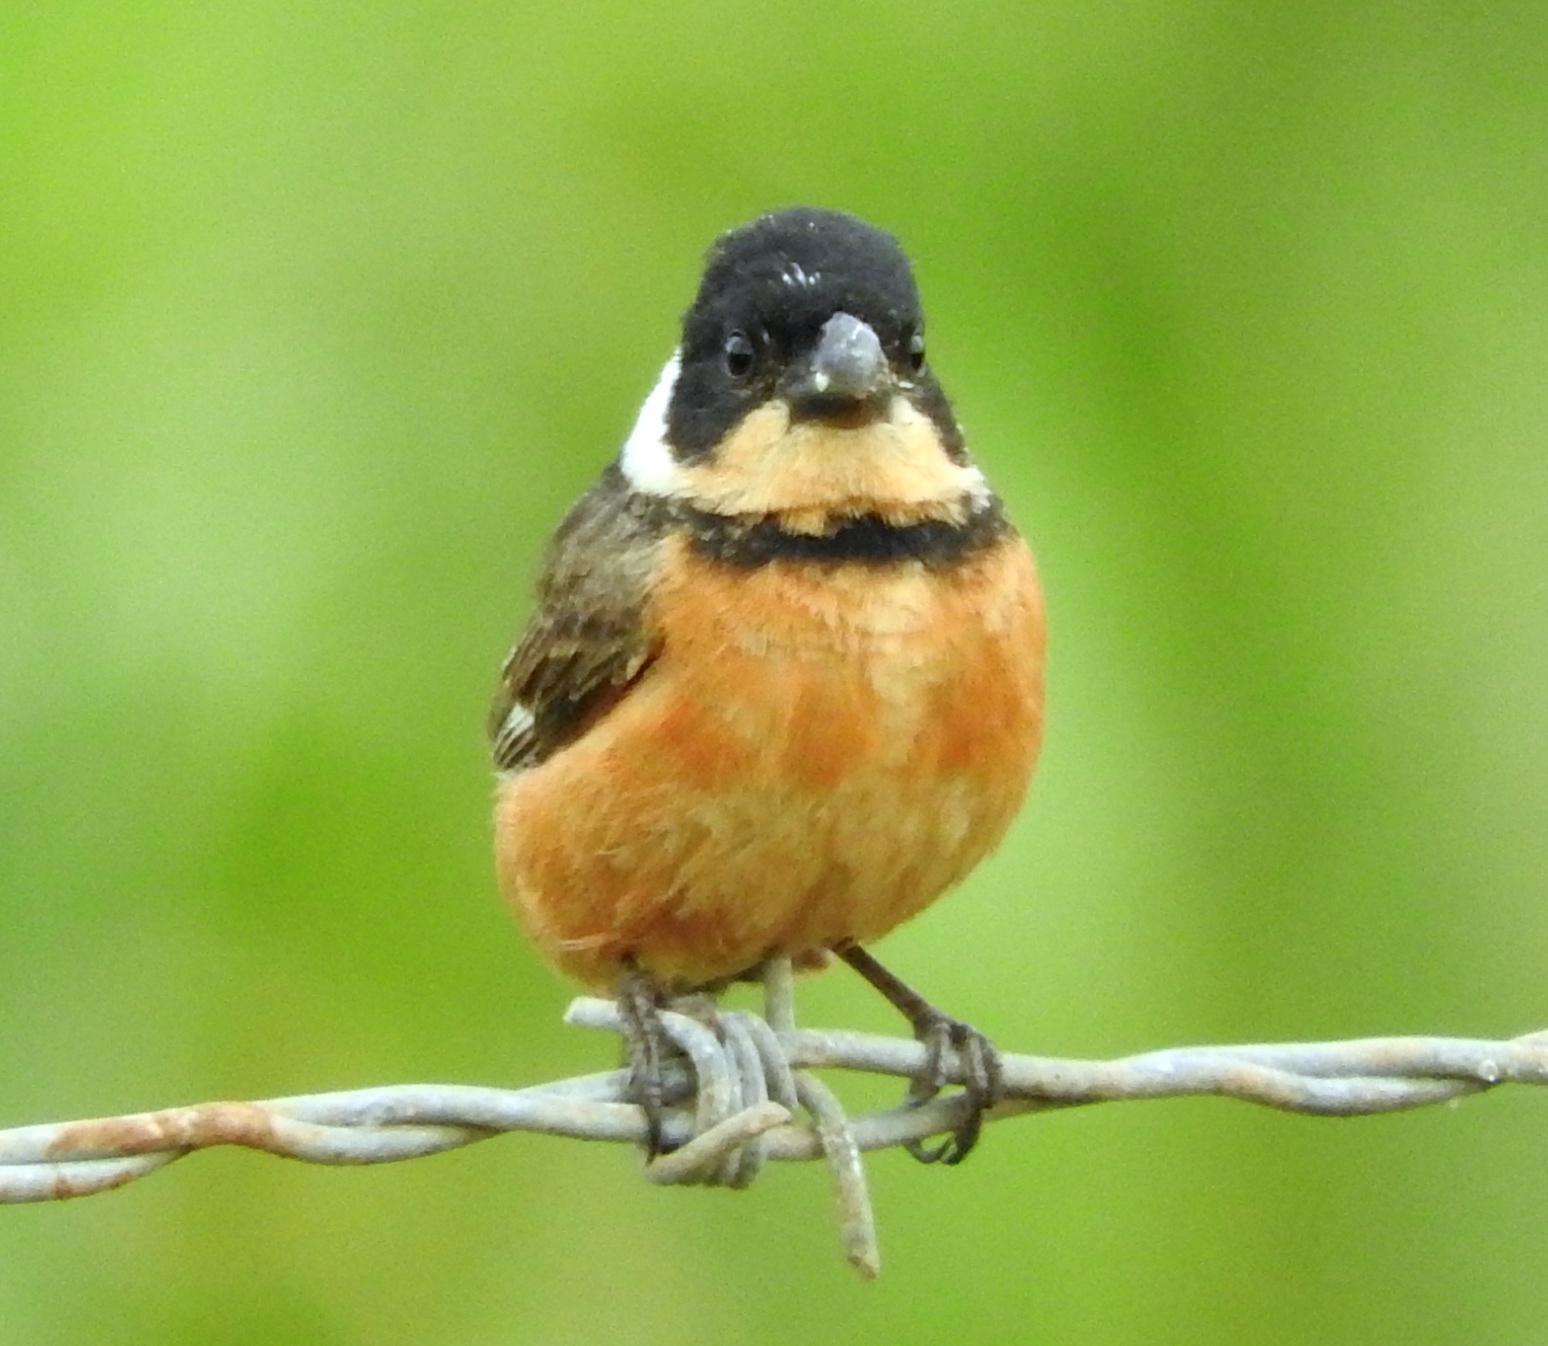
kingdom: Animalia
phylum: Chordata
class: Aves
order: Passeriformes
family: Thraupidae
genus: Sporophila
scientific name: Sporophila torqueola
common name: White-collared seedeater
